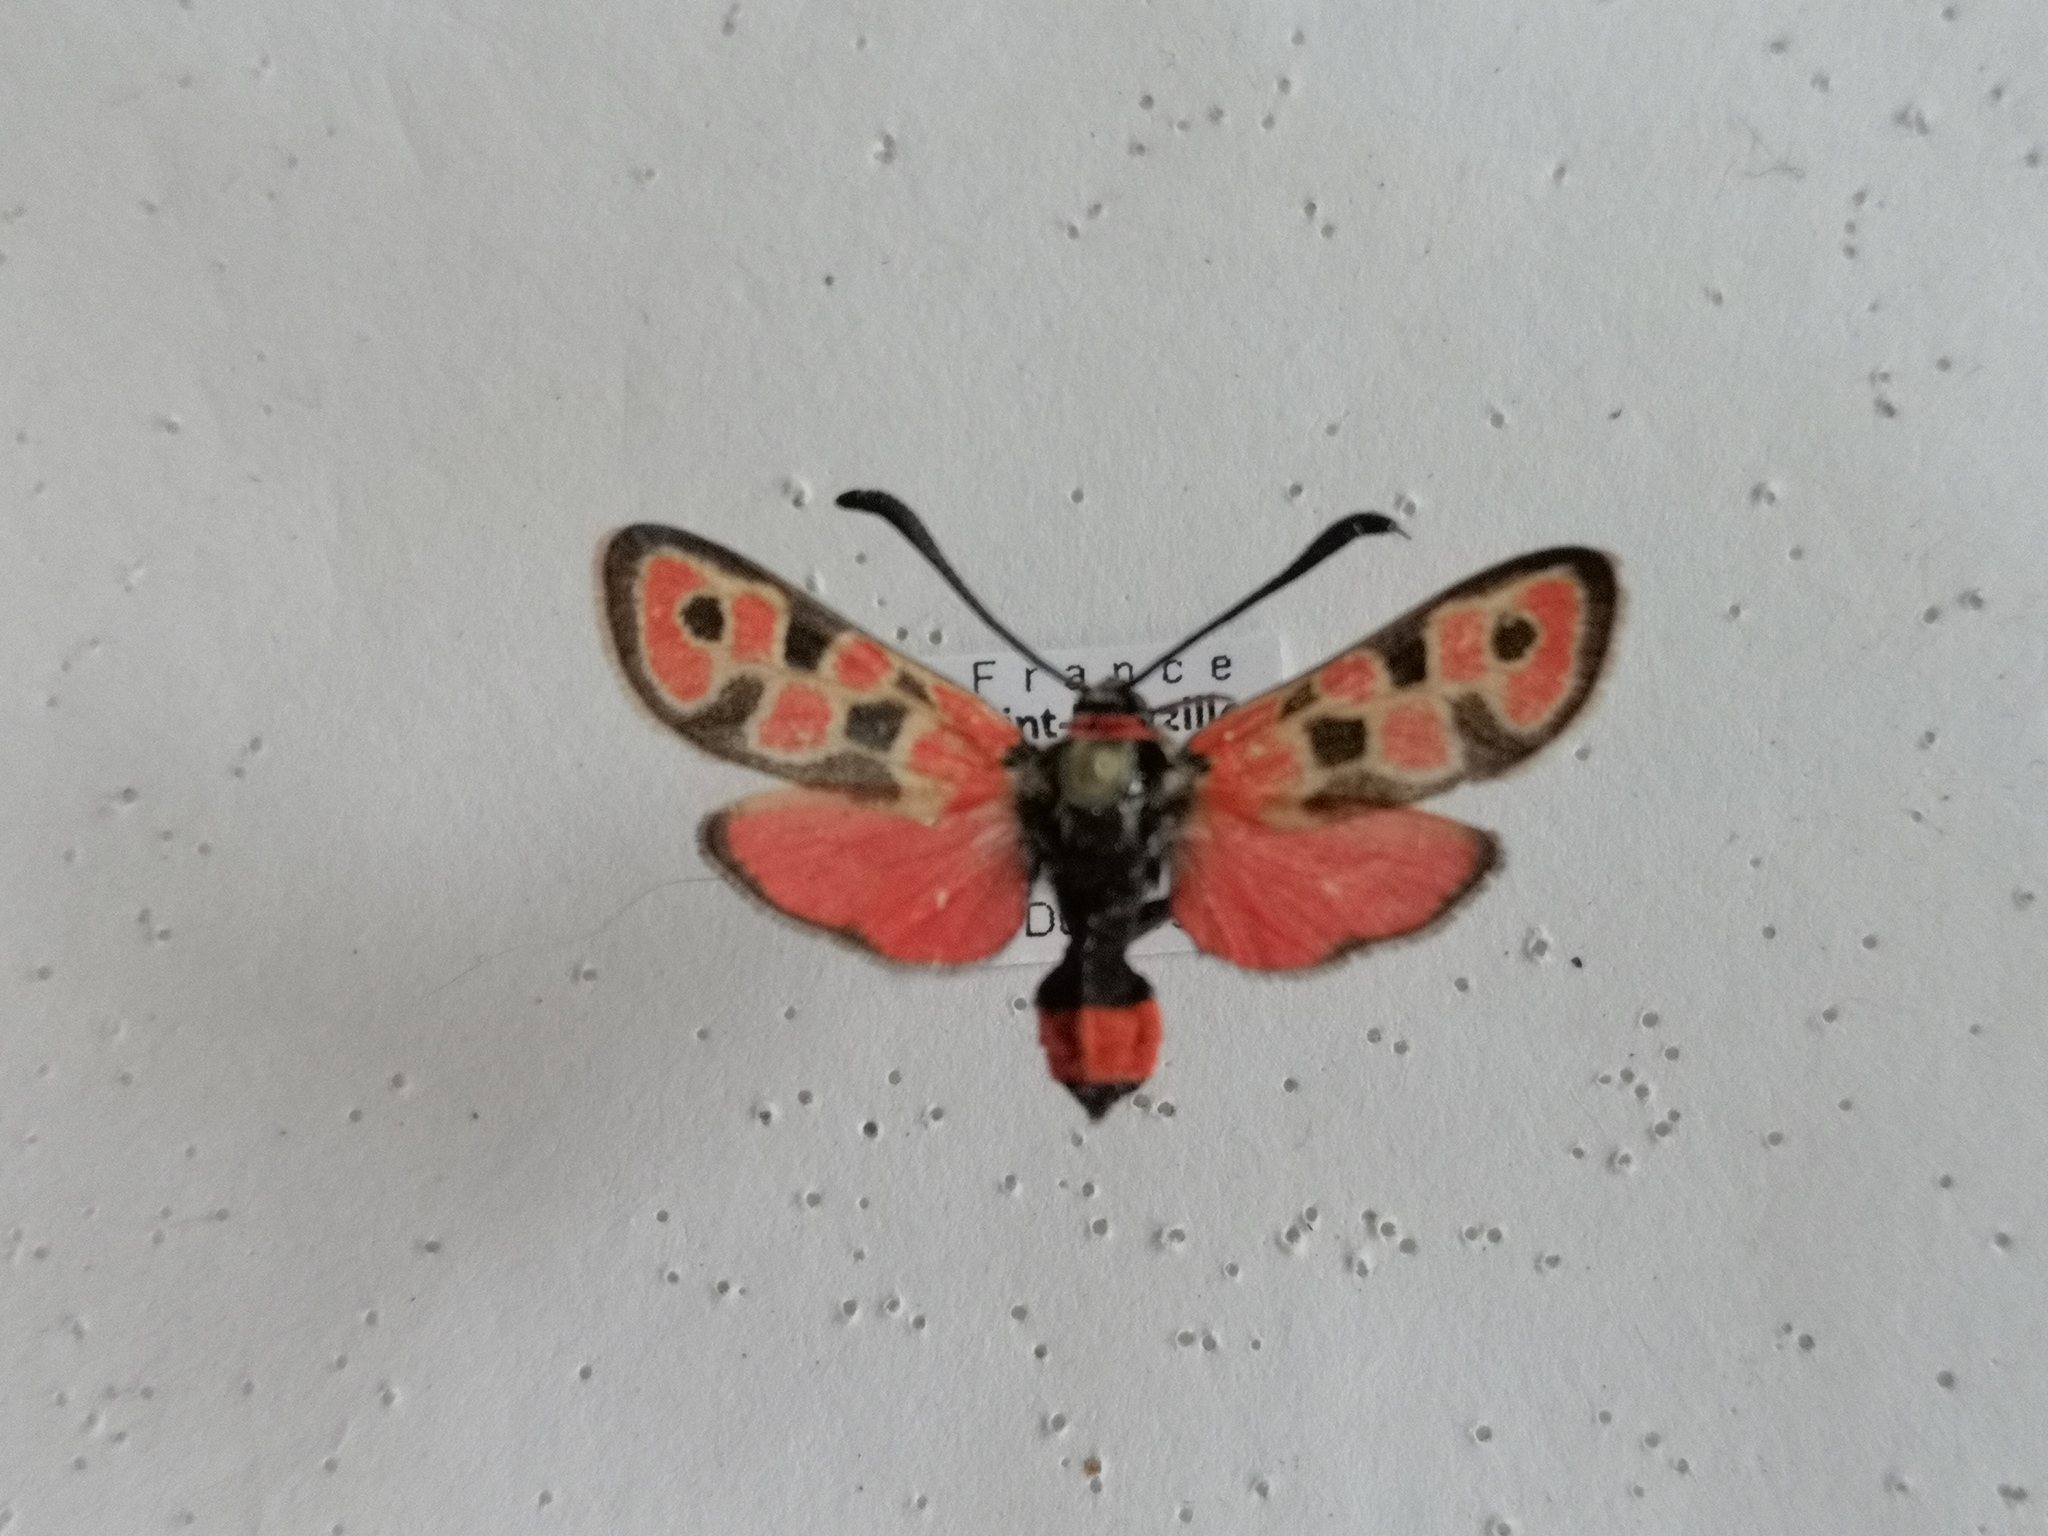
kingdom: Animalia
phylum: Arthropoda
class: Insecta
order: Lepidoptera
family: Zygaenidae
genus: Zygaena
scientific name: Zygaena fausta
